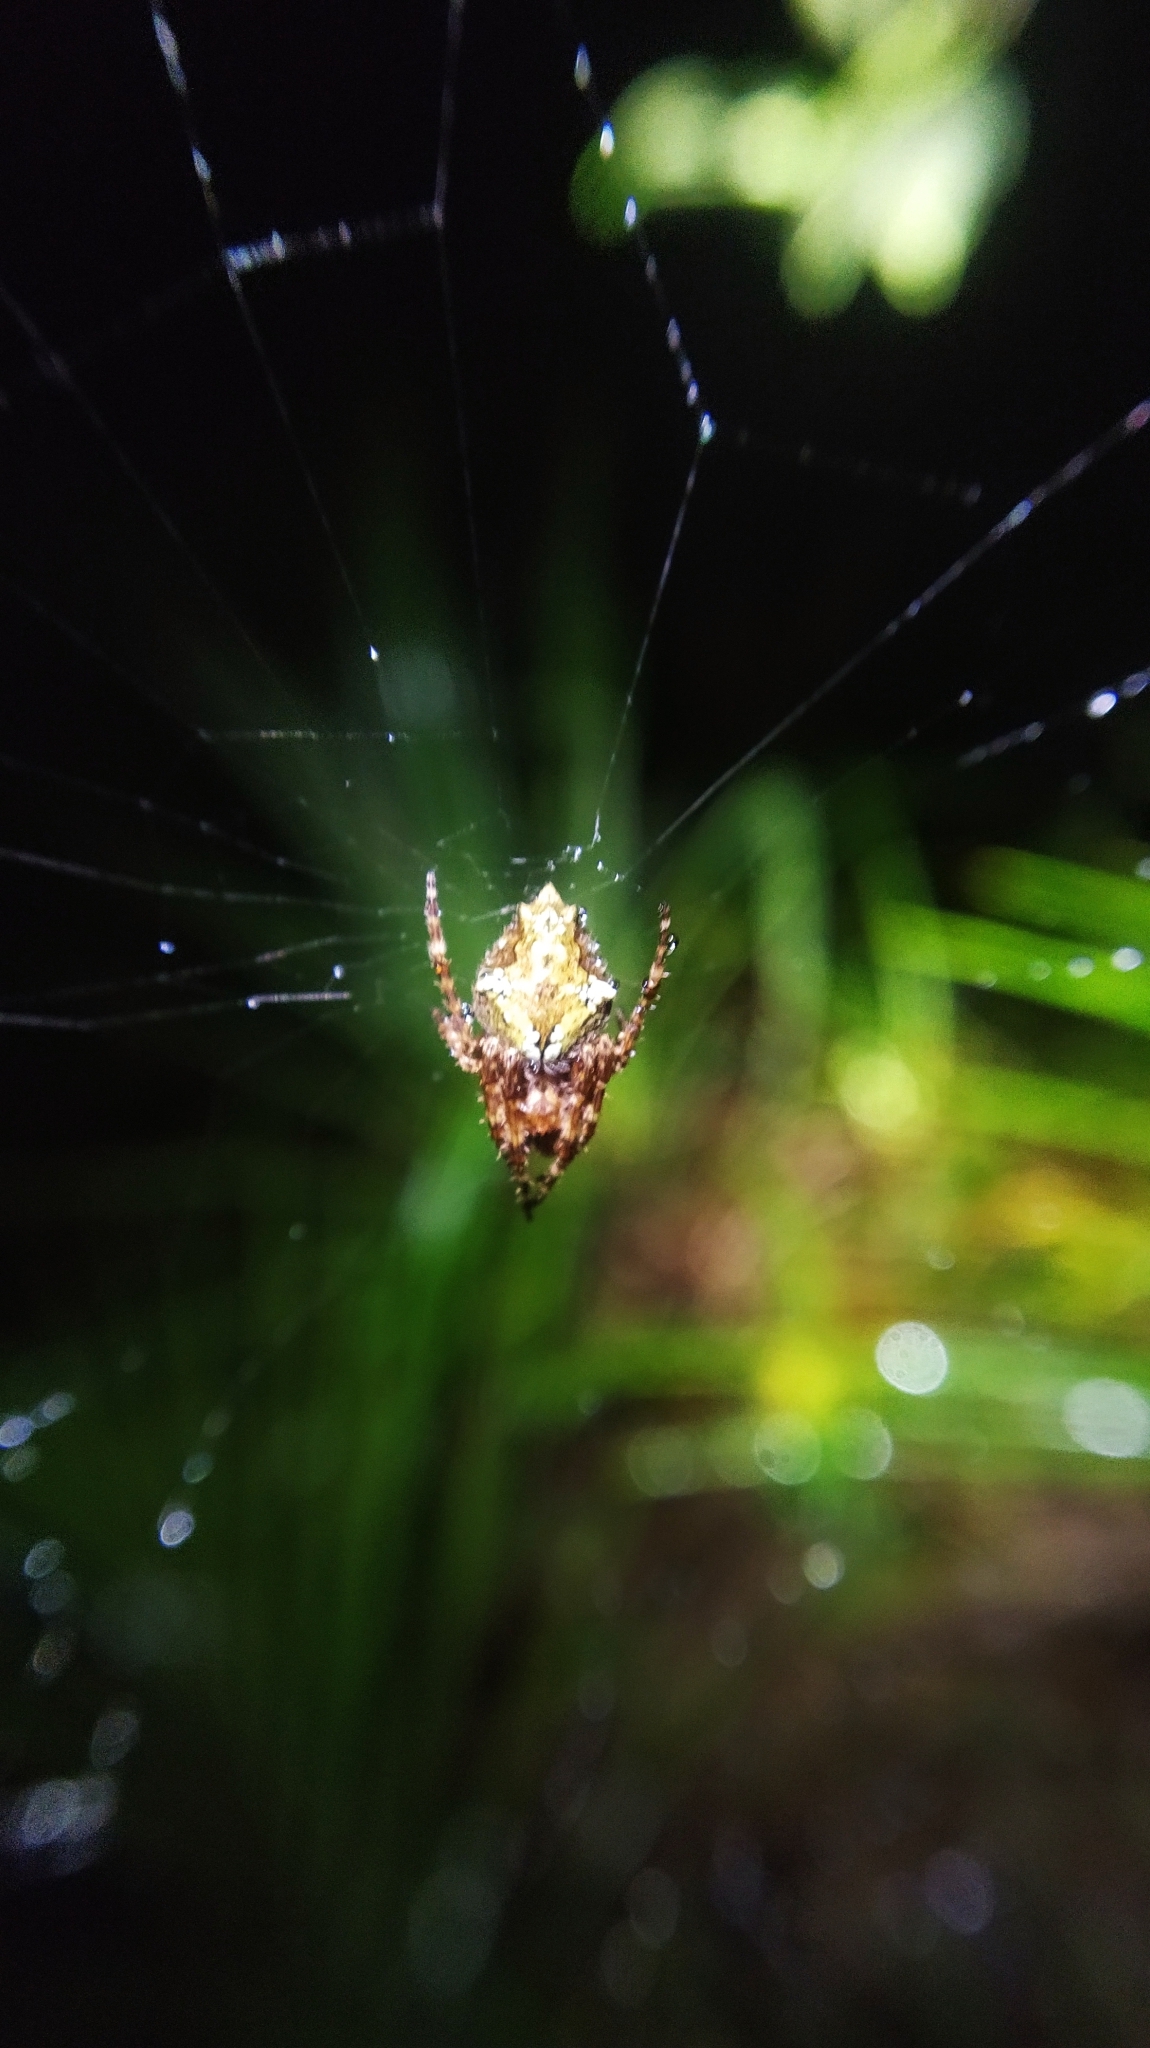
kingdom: Animalia
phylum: Arthropoda
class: Arachnida
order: Araneae
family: Araneidae
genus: Eriophora
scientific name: Eriophora pustulosa
